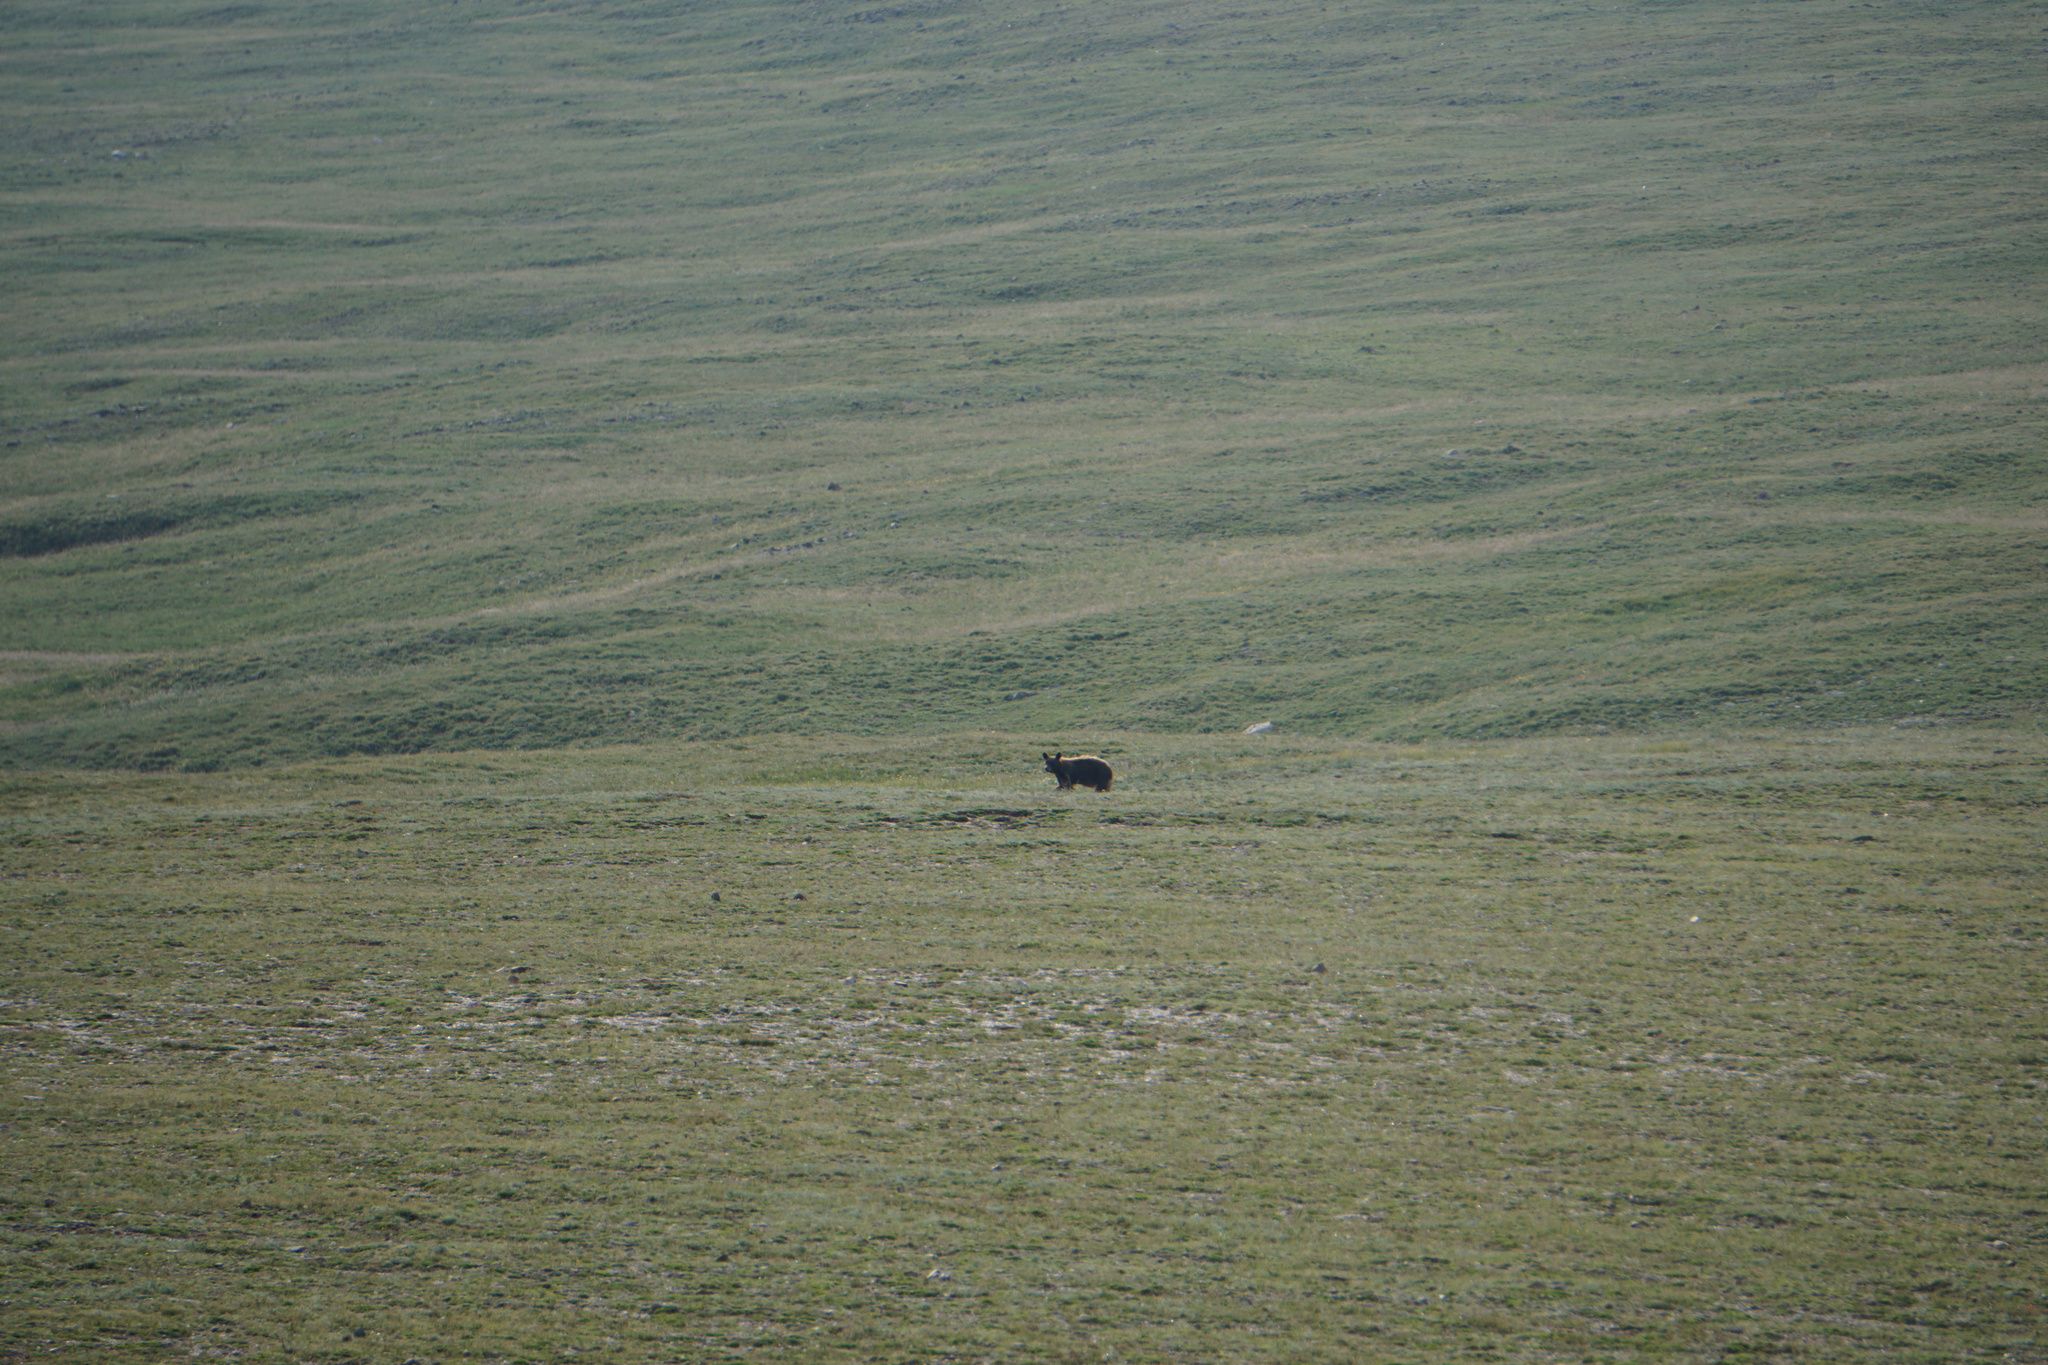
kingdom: Animalia
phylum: Chordata
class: Mammalia
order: Carnivora
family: Ursidae
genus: Ursus
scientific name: Ursus americanus
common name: American black bear
